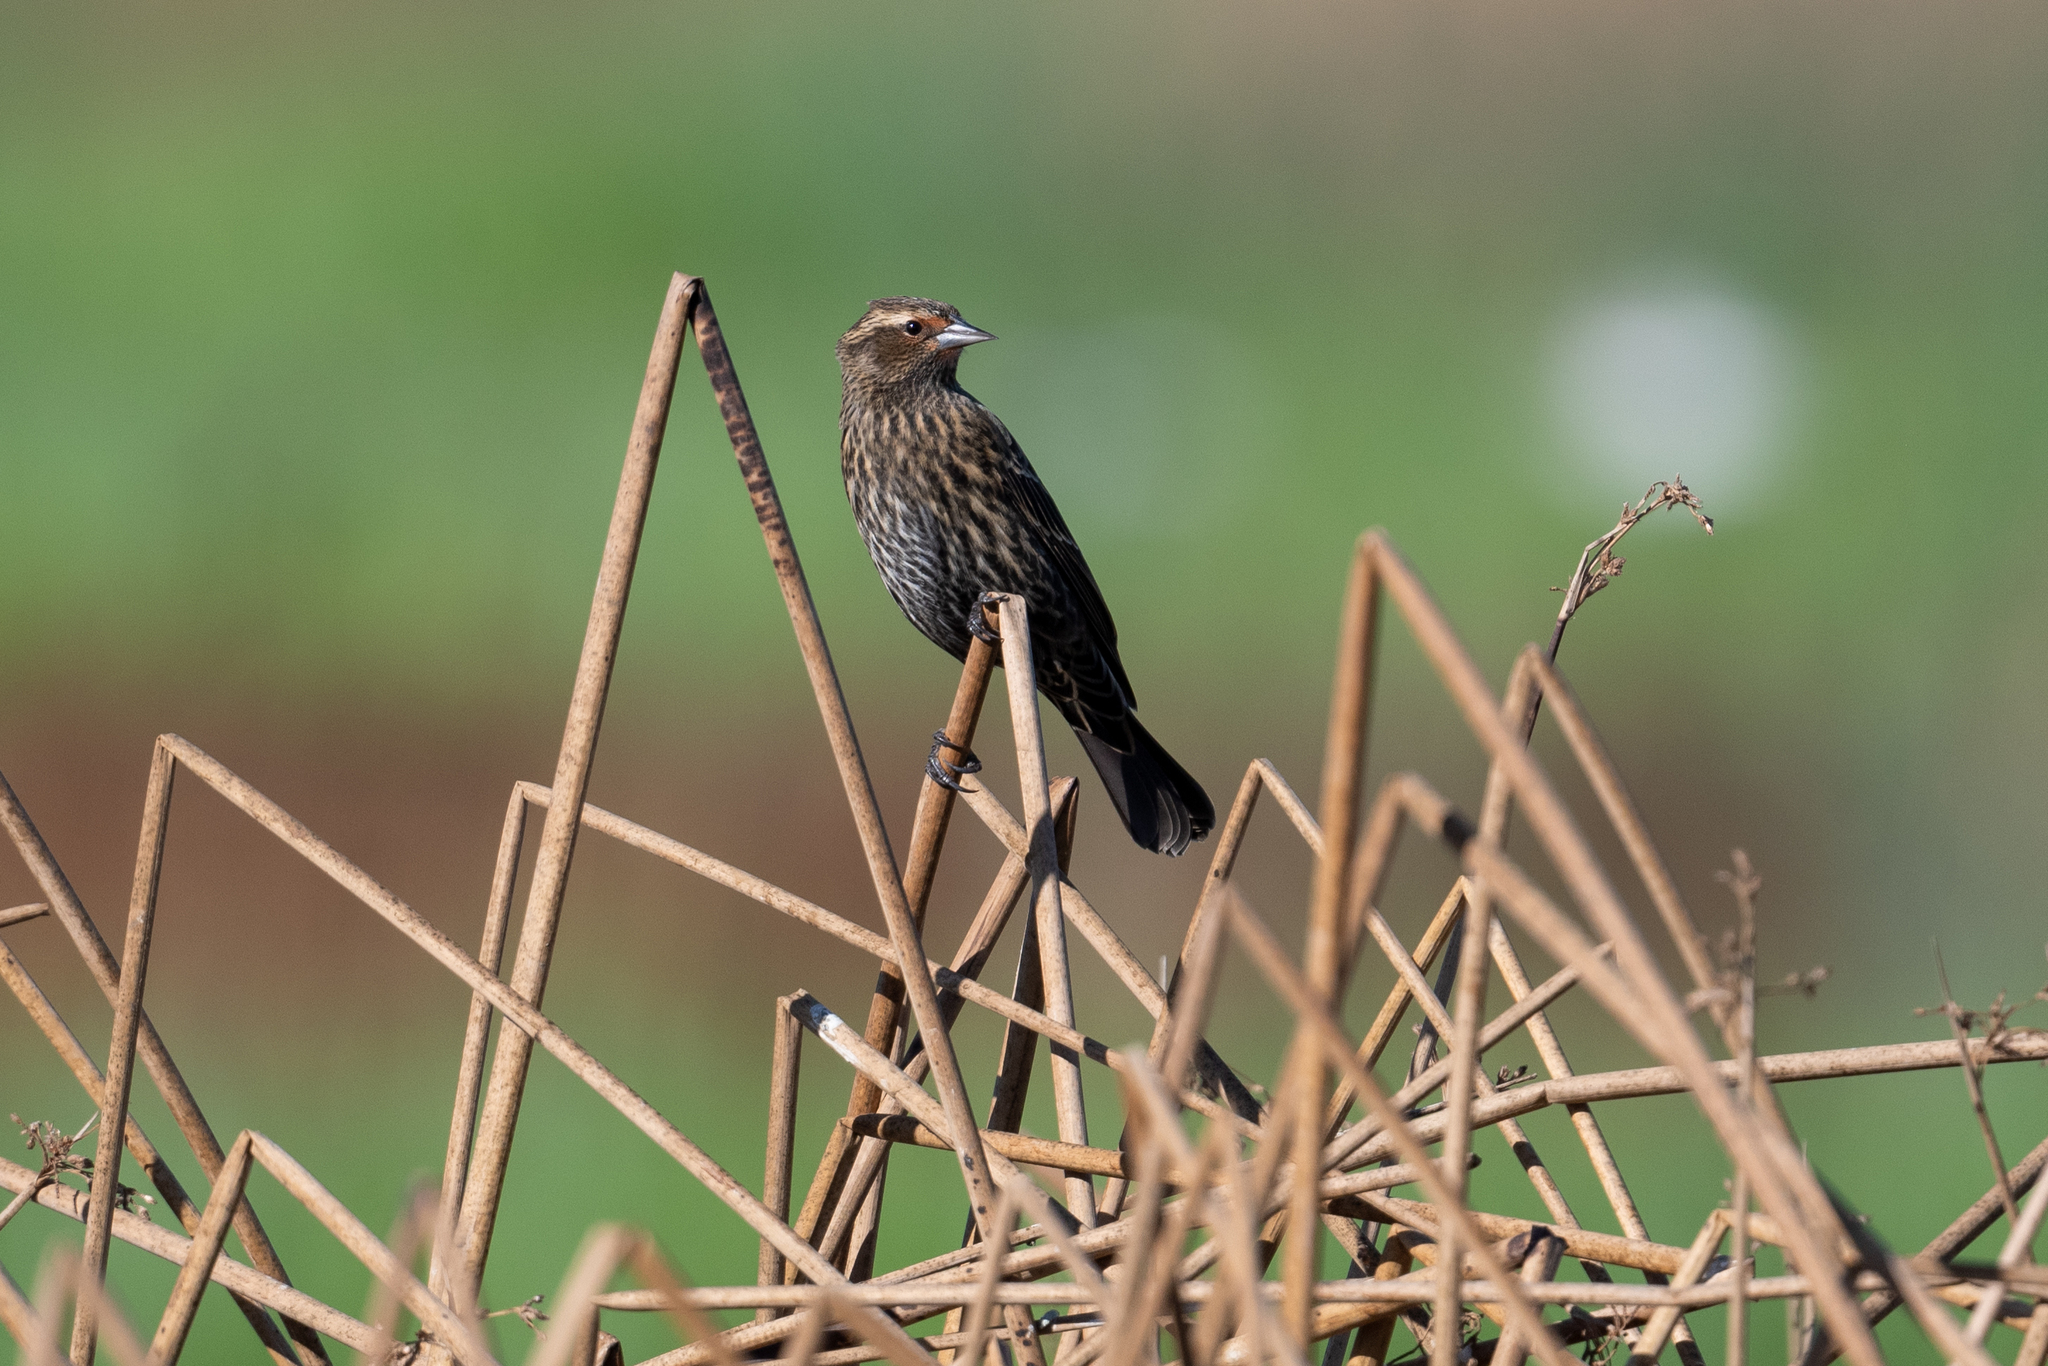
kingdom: Animalia
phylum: Chordata
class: Aves
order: Passeriformes
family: Icteridae
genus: Agelaius
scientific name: Agelaius phoeniceus
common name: Red-winged blackbird
